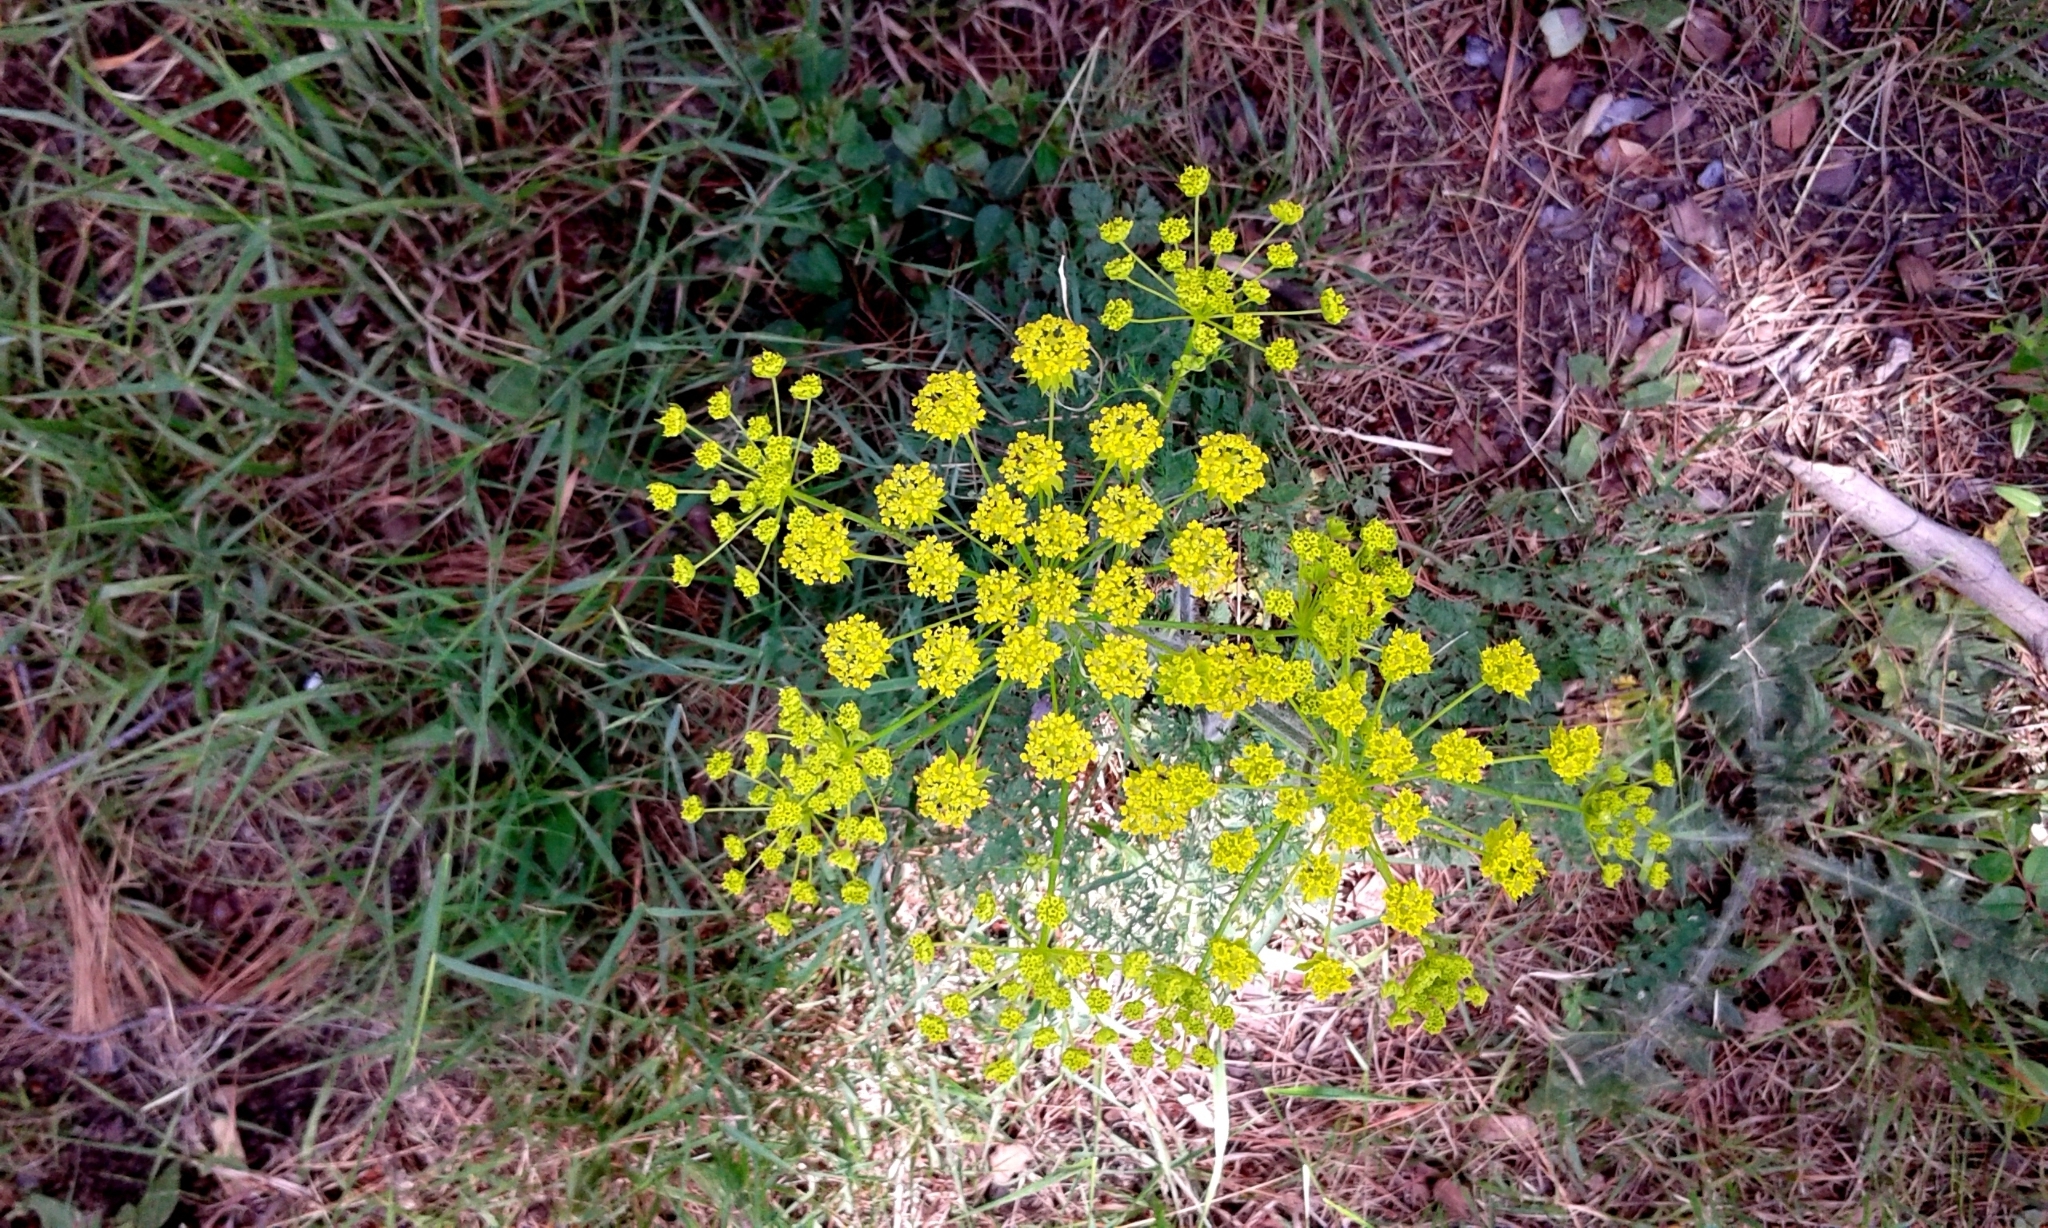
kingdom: Plantae
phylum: Tracheophyta
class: Magnoliopsida
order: Apiales
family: Apiaceae
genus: Chaerophyllum
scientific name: Chaerophyllum coloratum
